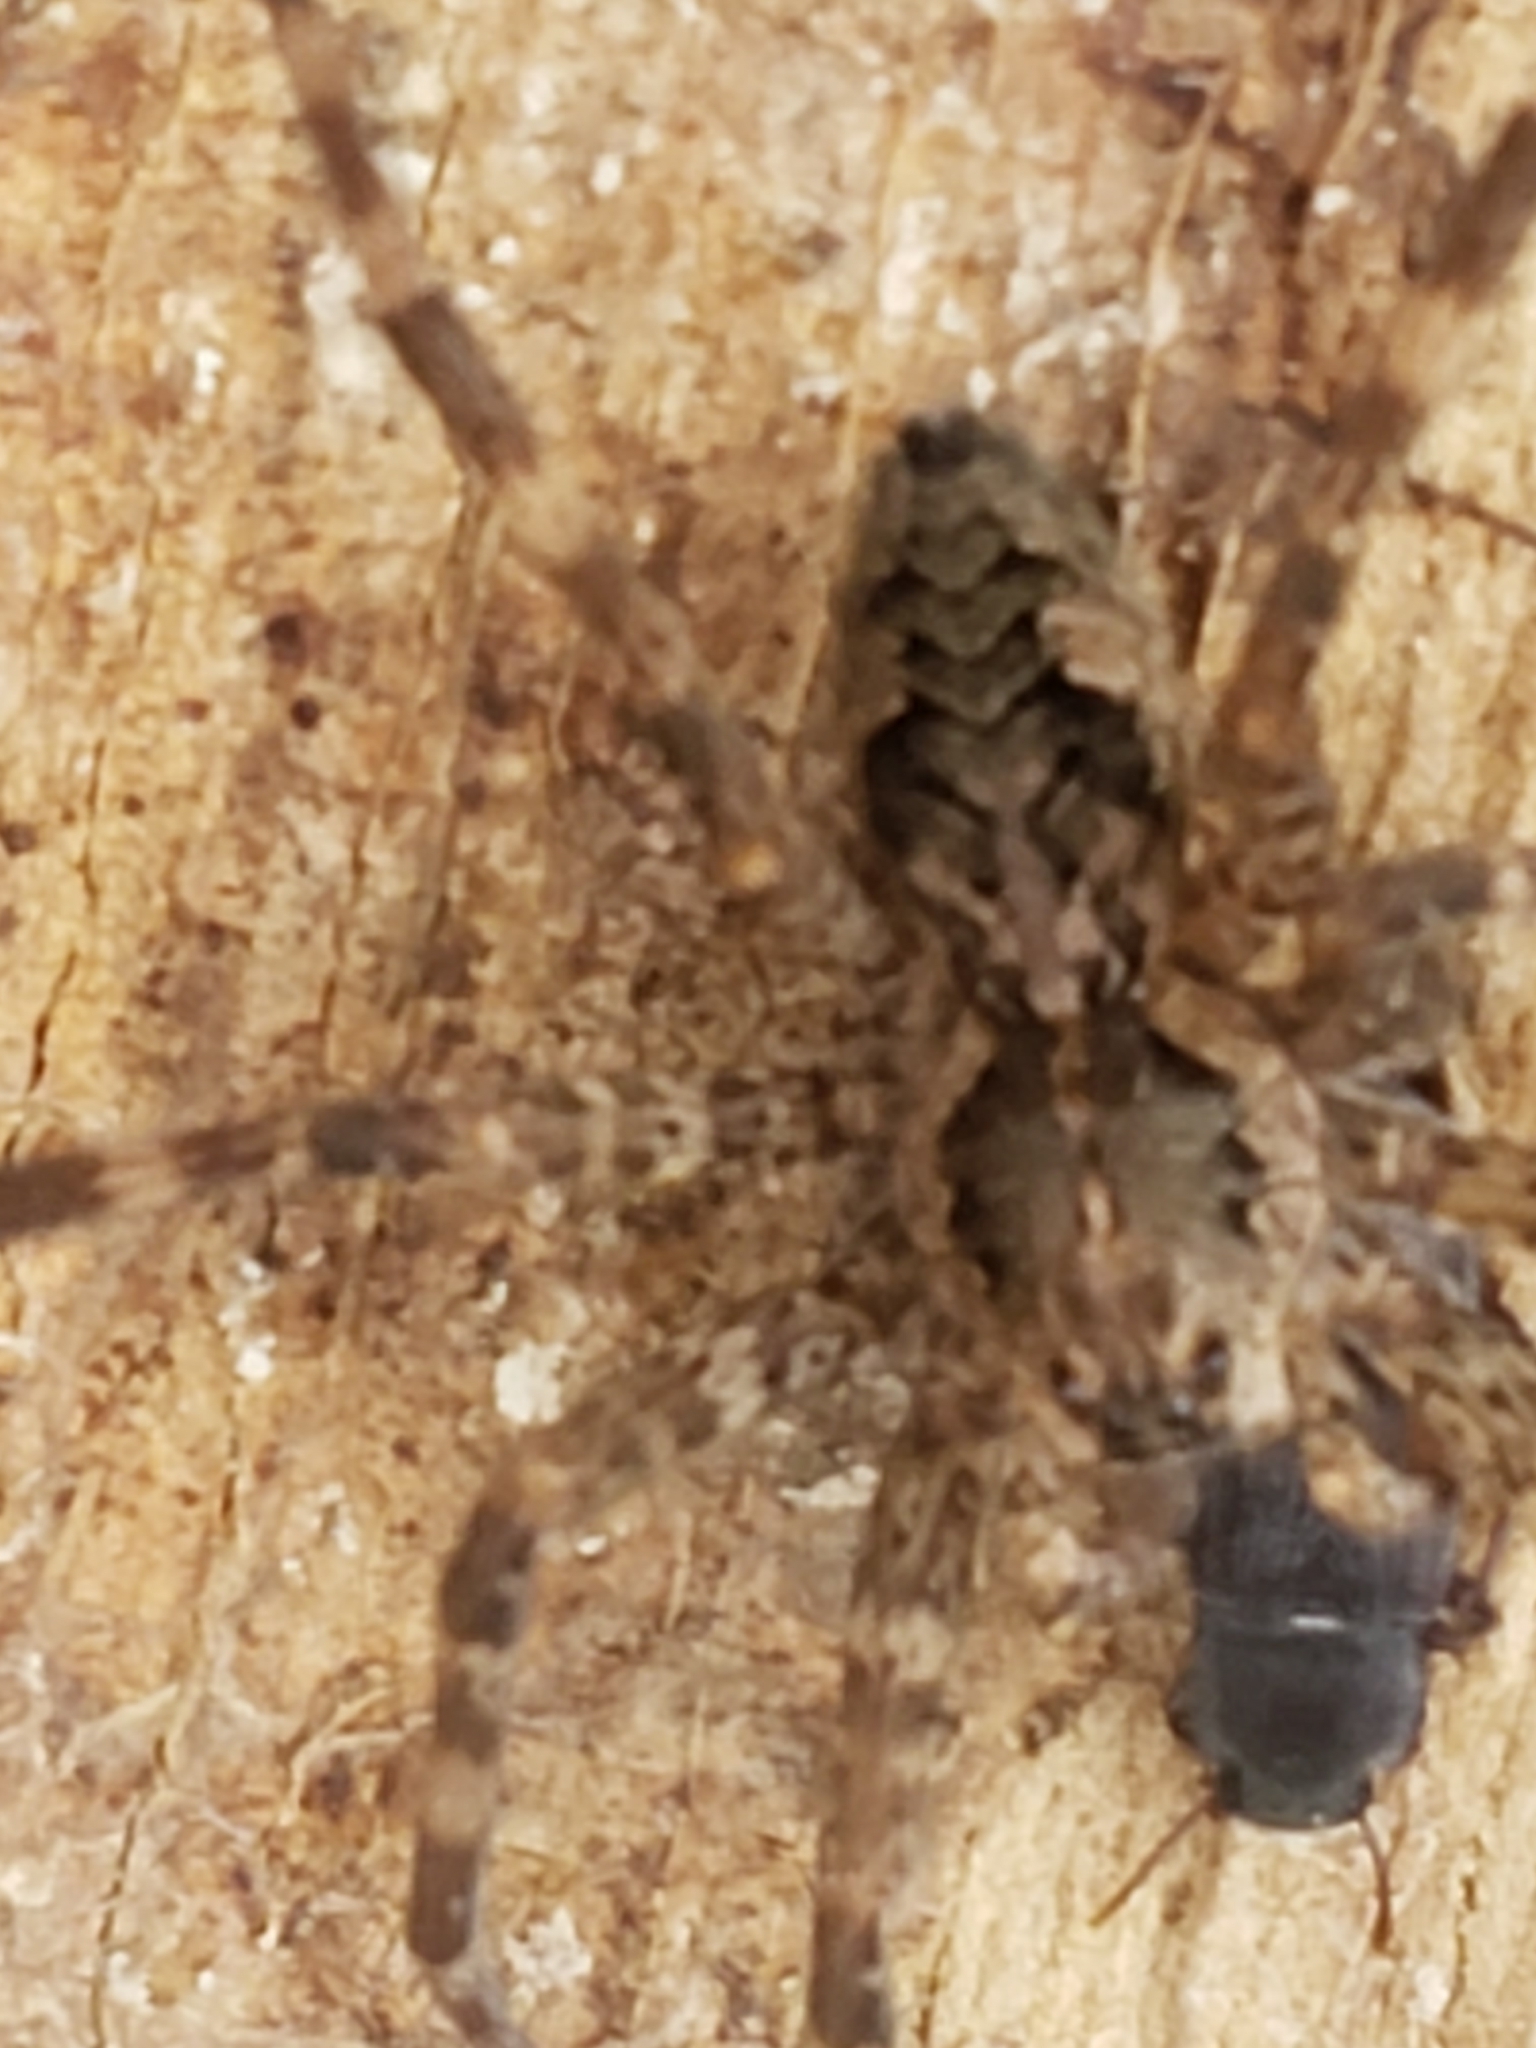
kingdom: Animalia
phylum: Arthropoda
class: Arachnida
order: Araneae
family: Pisauridae
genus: Dolomedes
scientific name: Dolomedes tenebrosus
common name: Dark fishing spider
